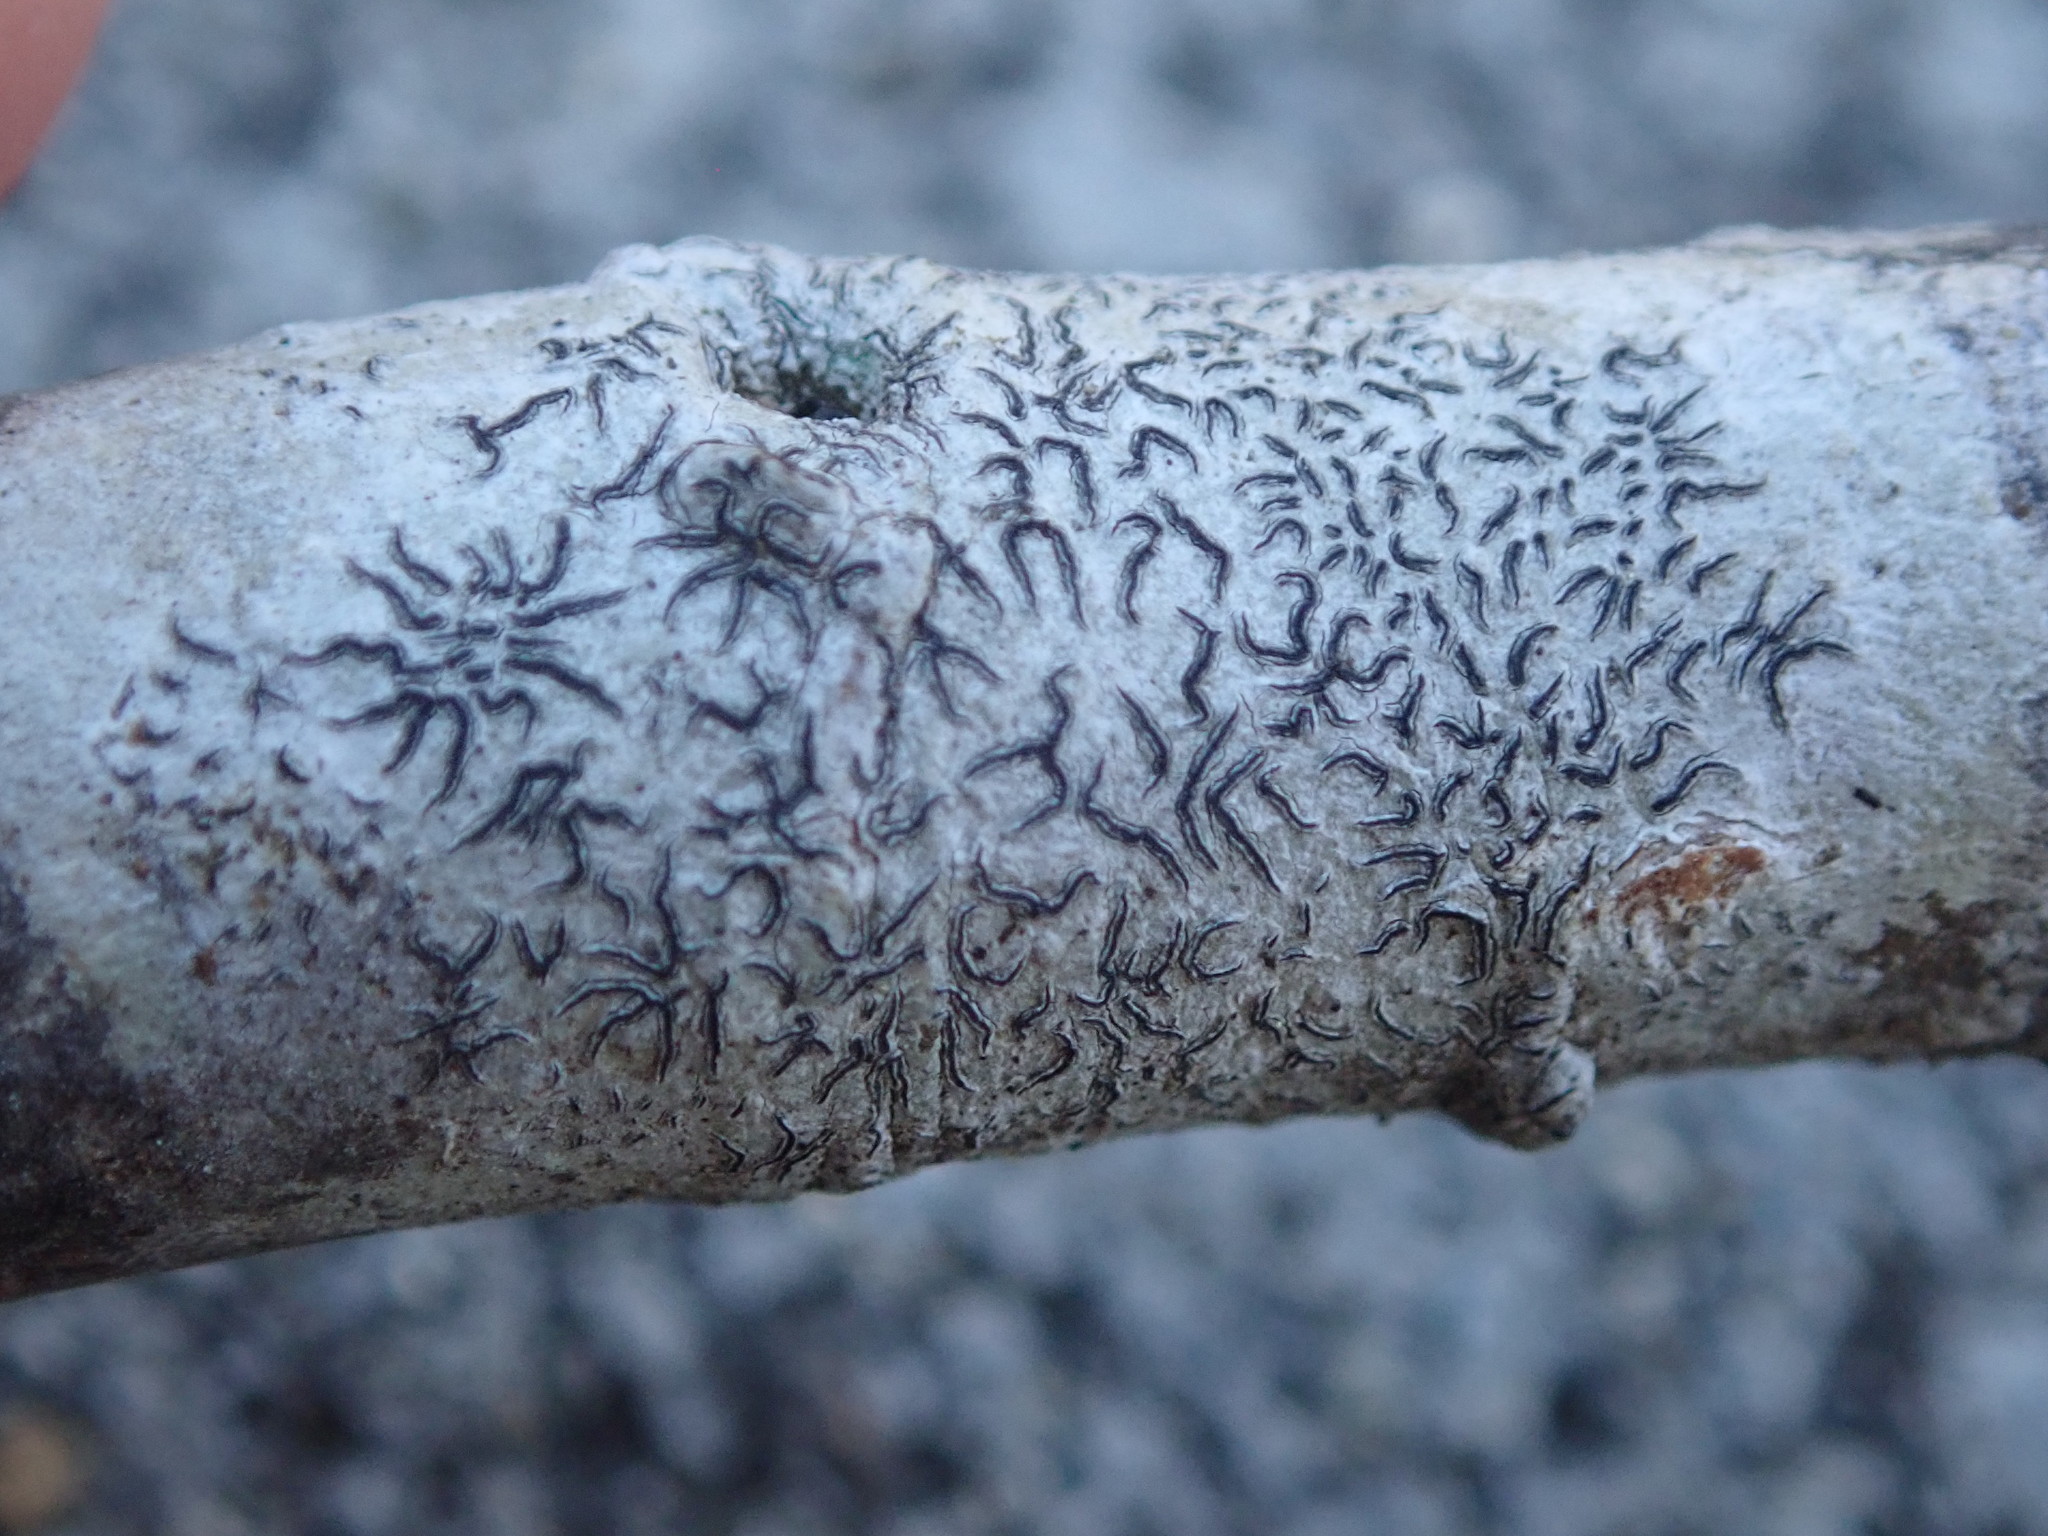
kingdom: Fungi
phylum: Ascomycota
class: Lecanoromycetes
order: Ostropales
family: Graphidaceae
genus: Graphis
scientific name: Graphis scripta
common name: Script lichen
